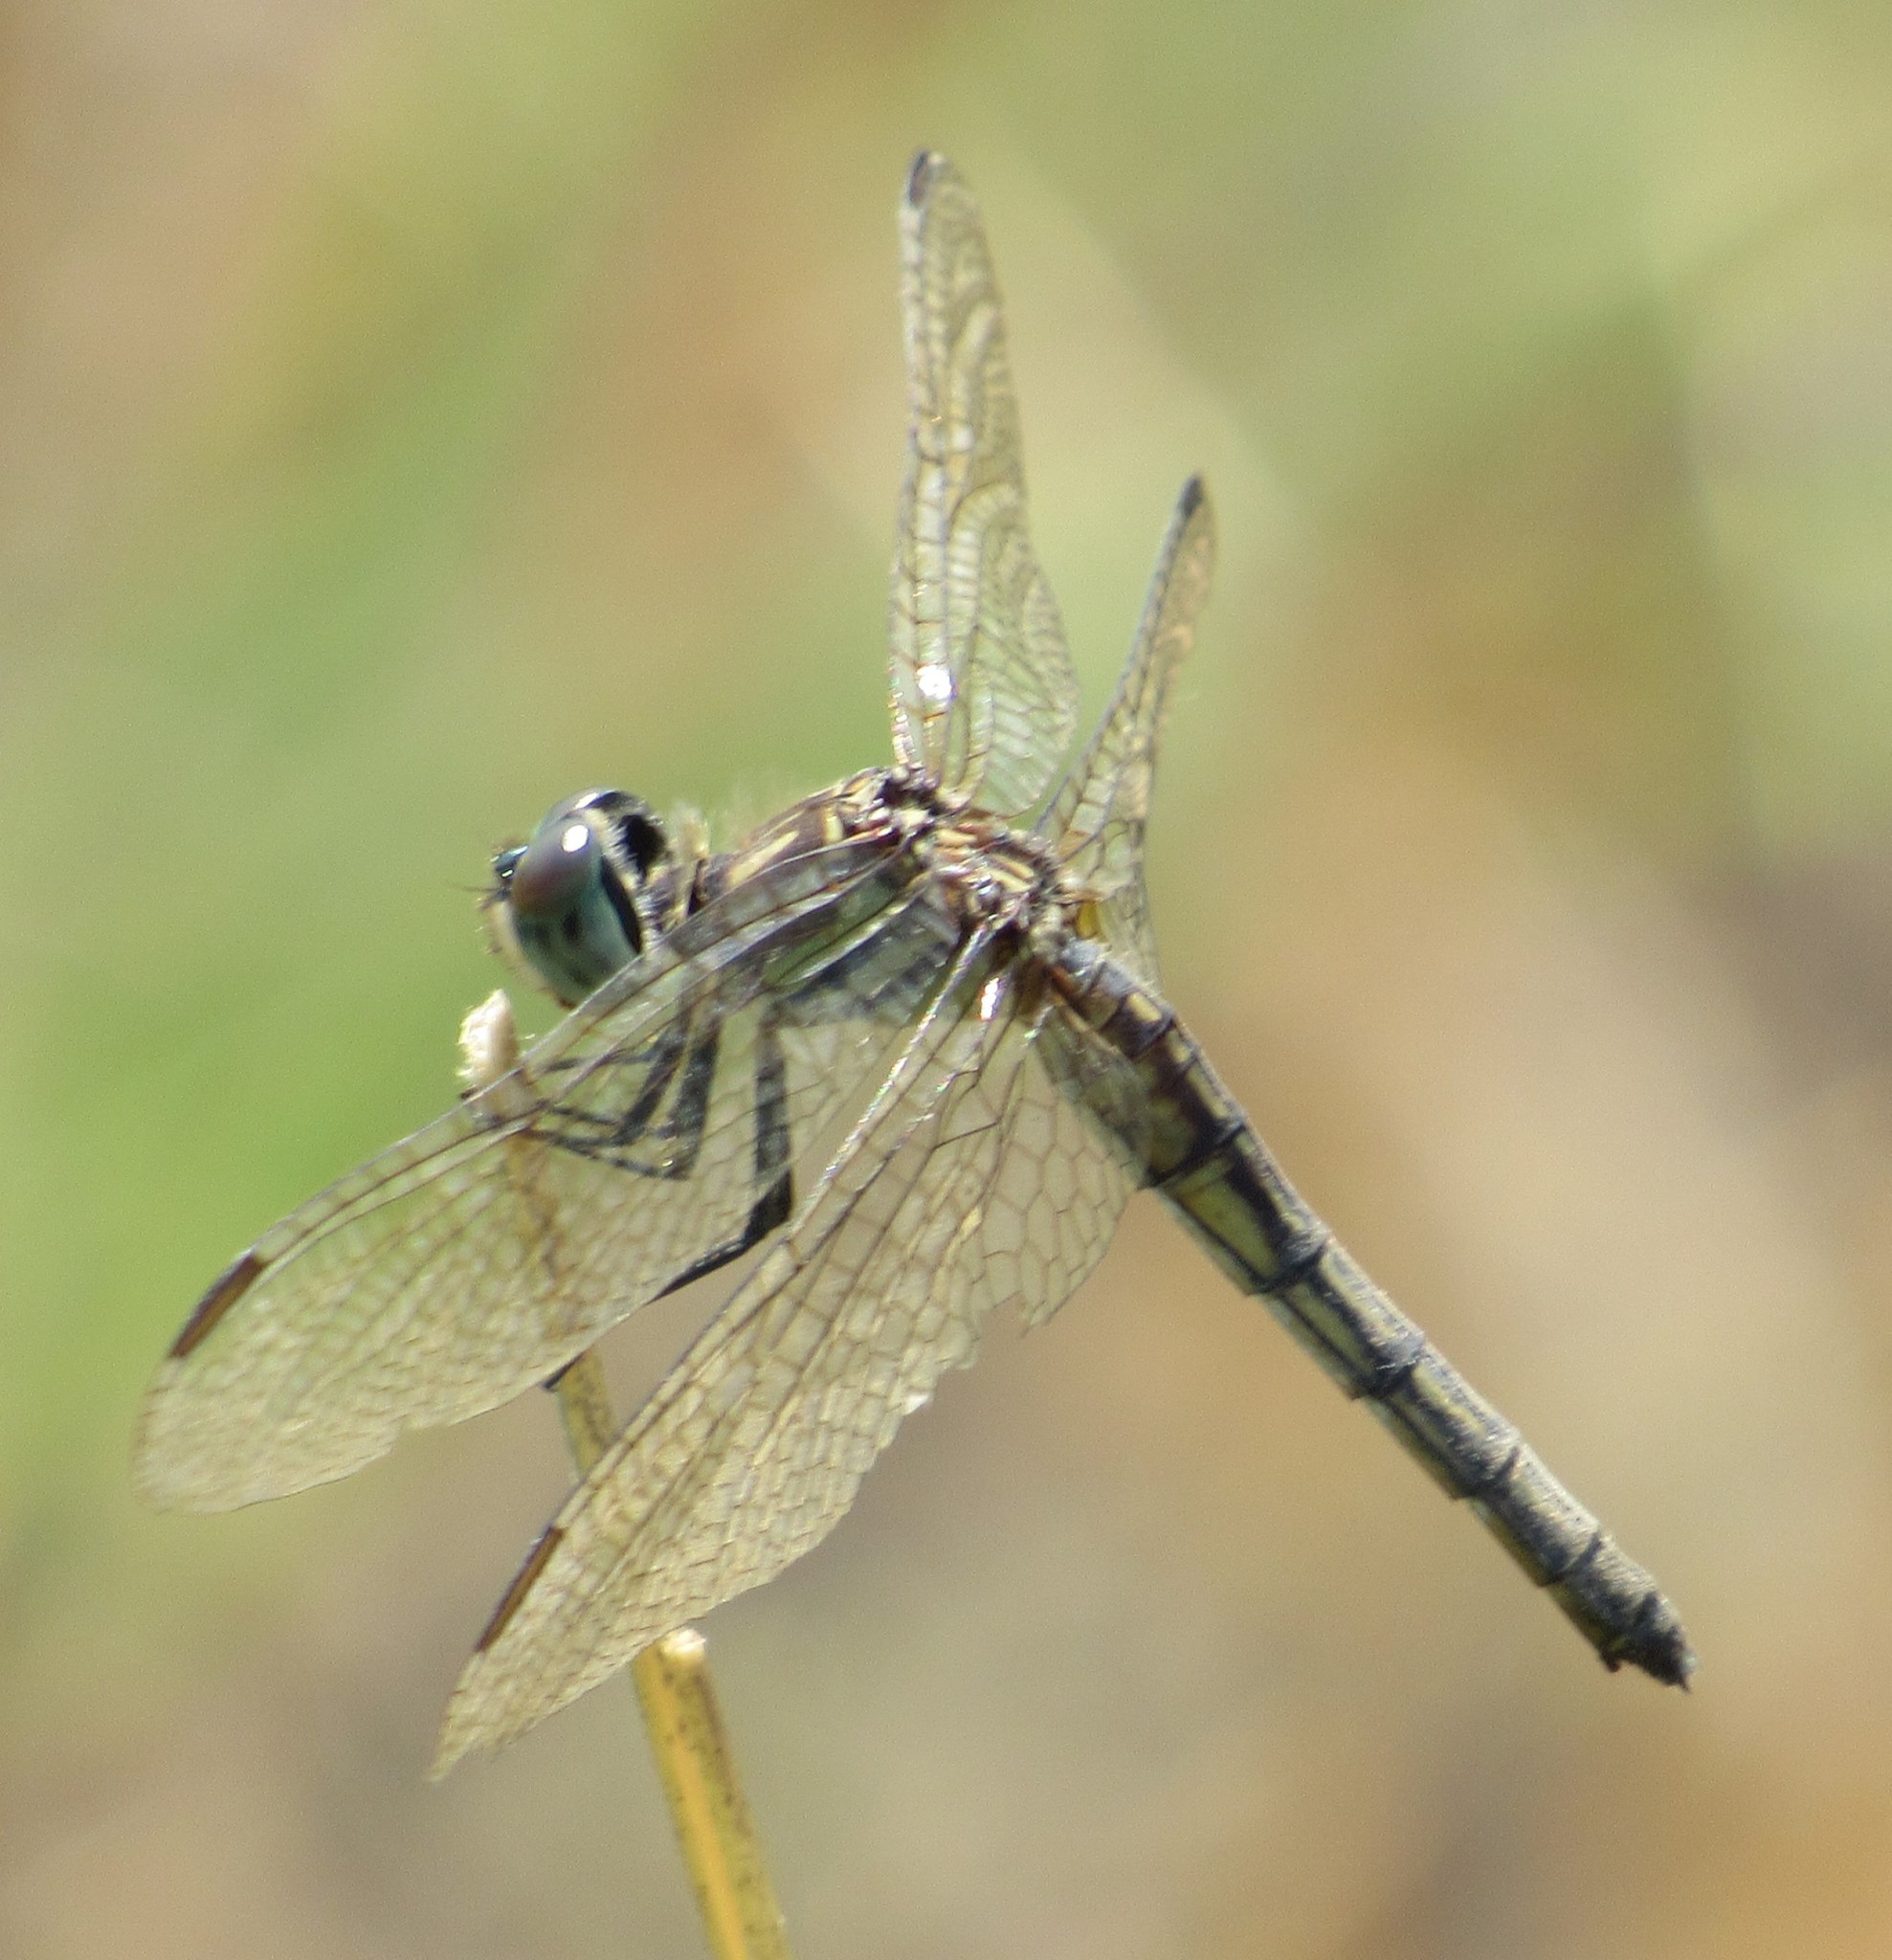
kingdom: Animalia
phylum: Arthropoda
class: Insecta
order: Odonata
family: Libellulidae
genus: Pachydiplax
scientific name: Pachydiplax longipennis
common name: Blue dasher
